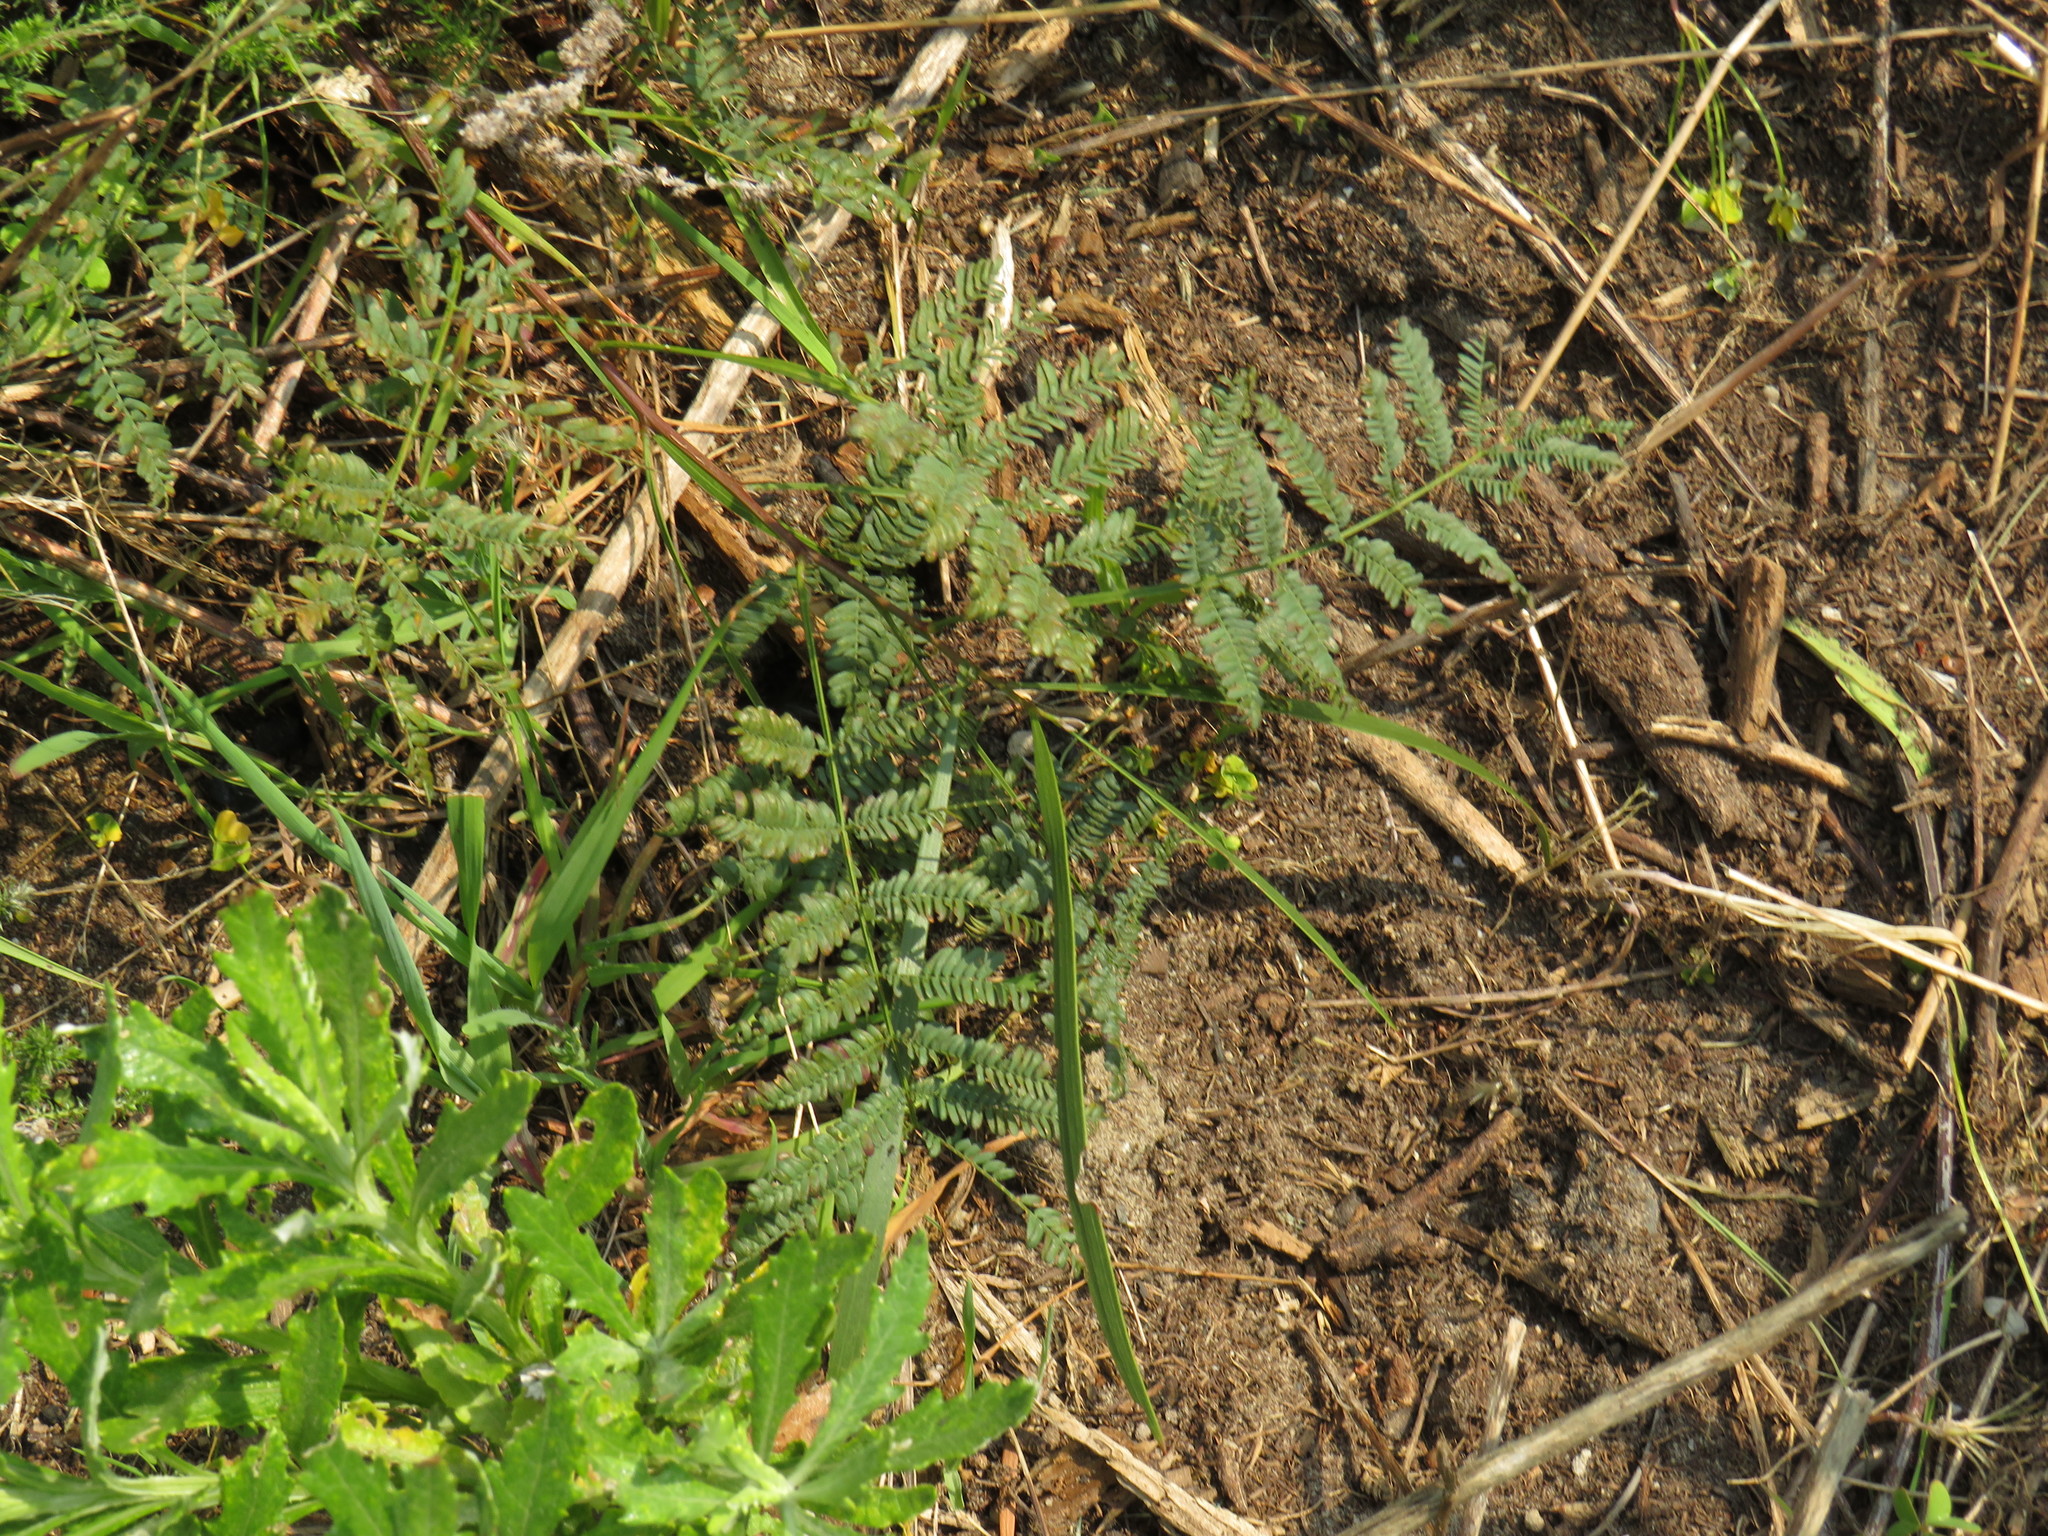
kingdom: Plantae
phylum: Tracheophyta
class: Magnoliopsida
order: Fabales
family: Fabaceae
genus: Acacia
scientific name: Acacia implexa
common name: Black wattle
